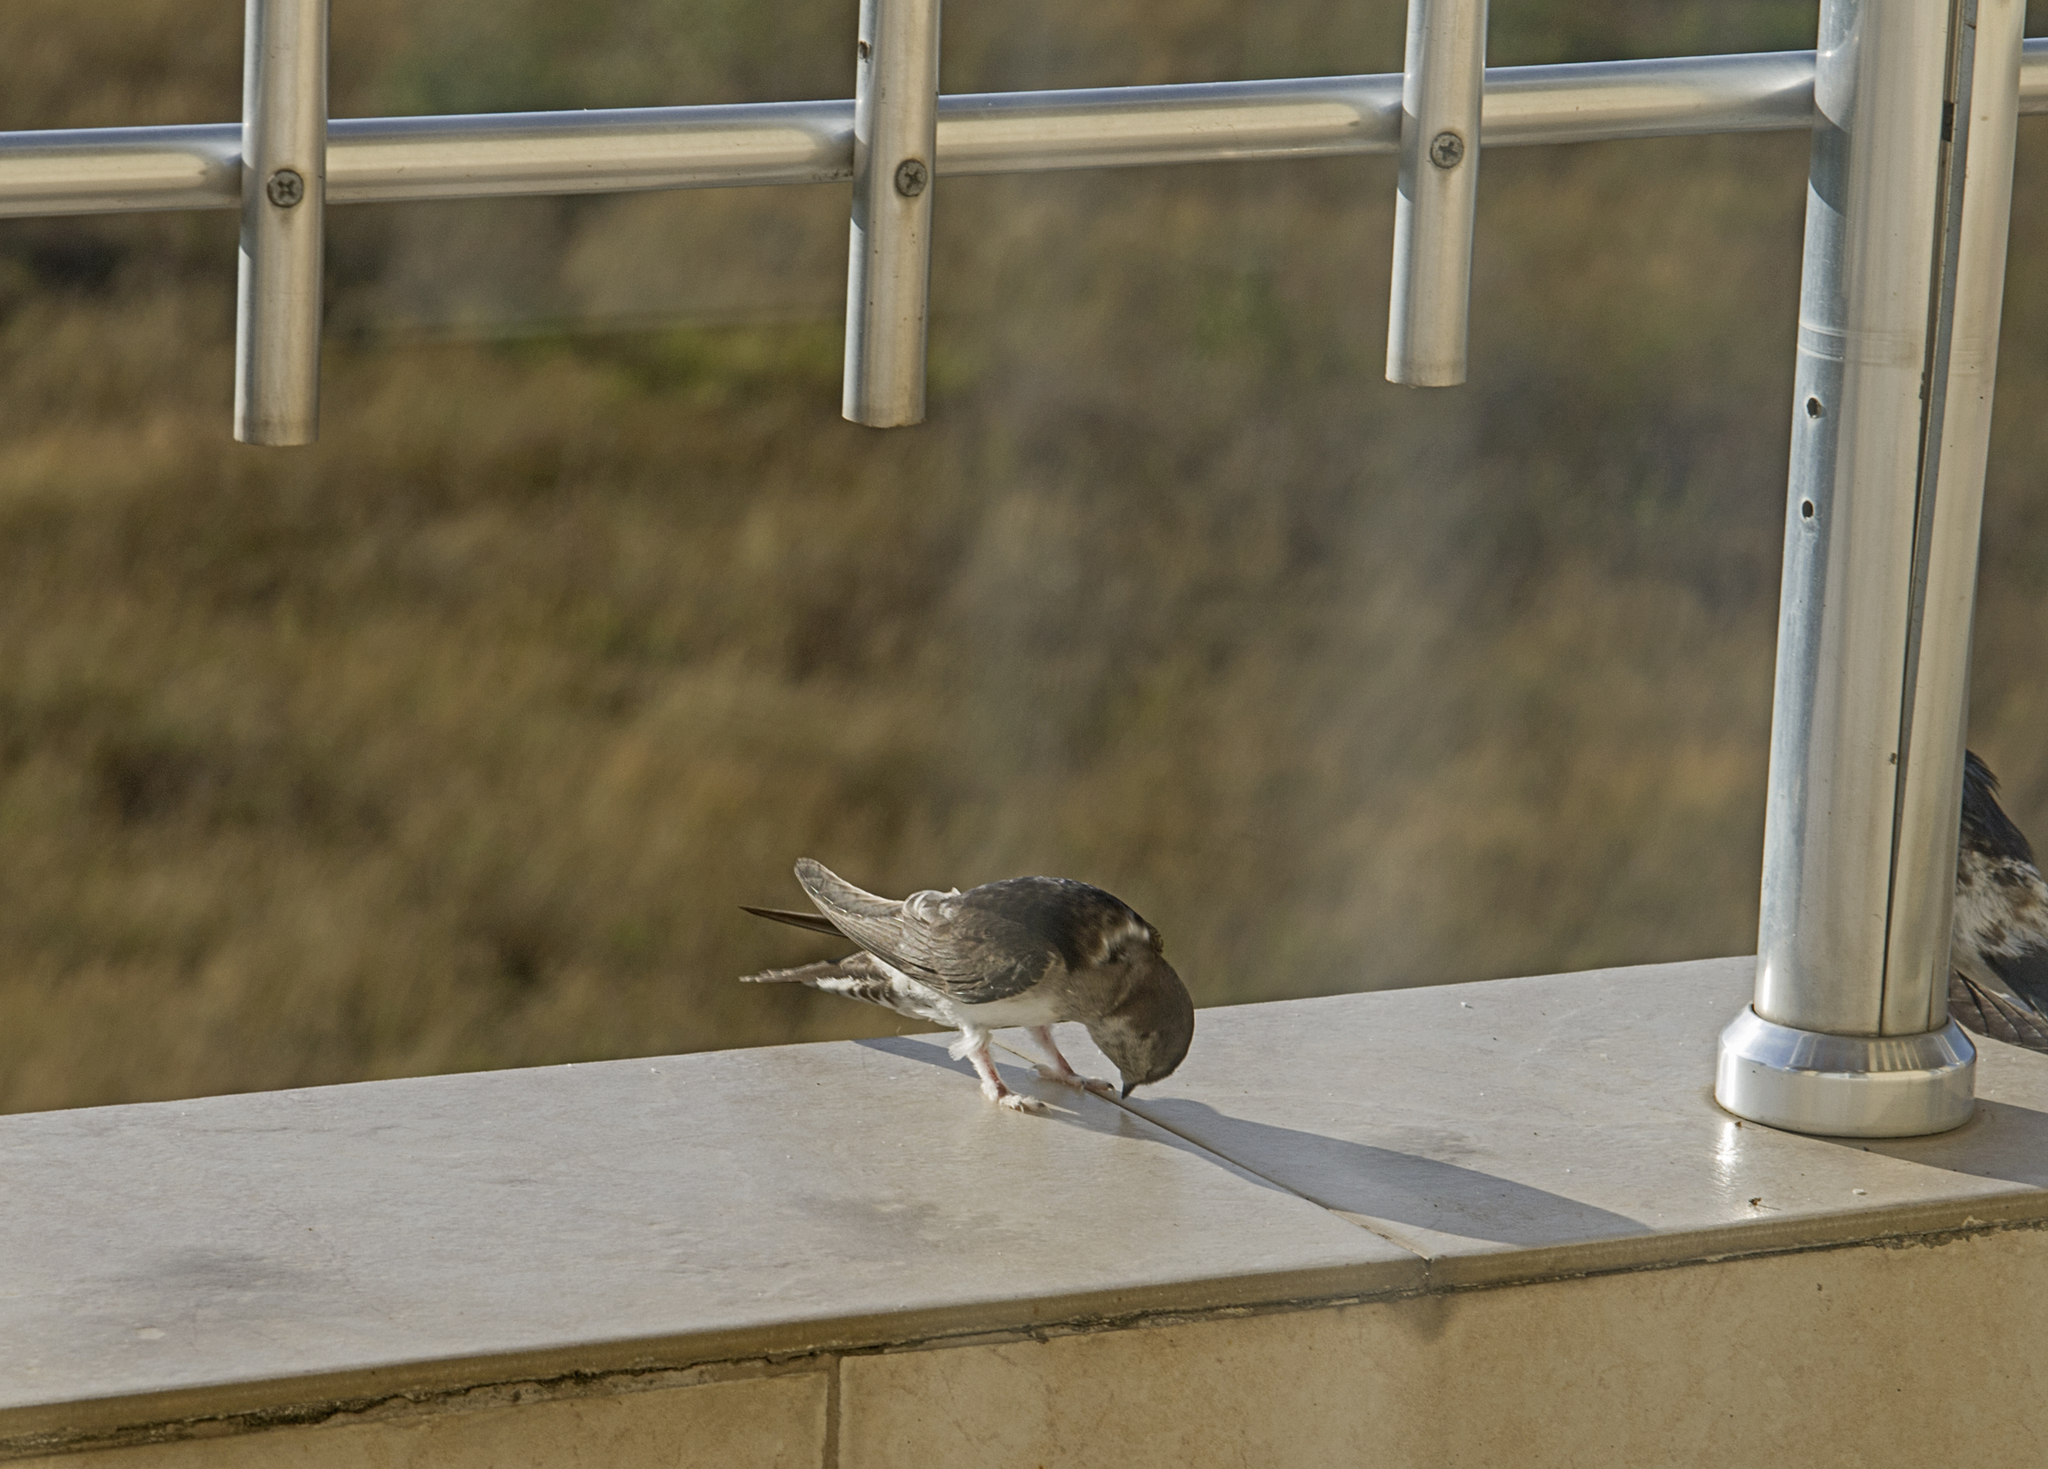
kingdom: Animalia
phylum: Chordata
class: Aves
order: Passeriformes
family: Hirundinidae
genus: Delichon
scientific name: Delichon urbicum
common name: Common house martin
